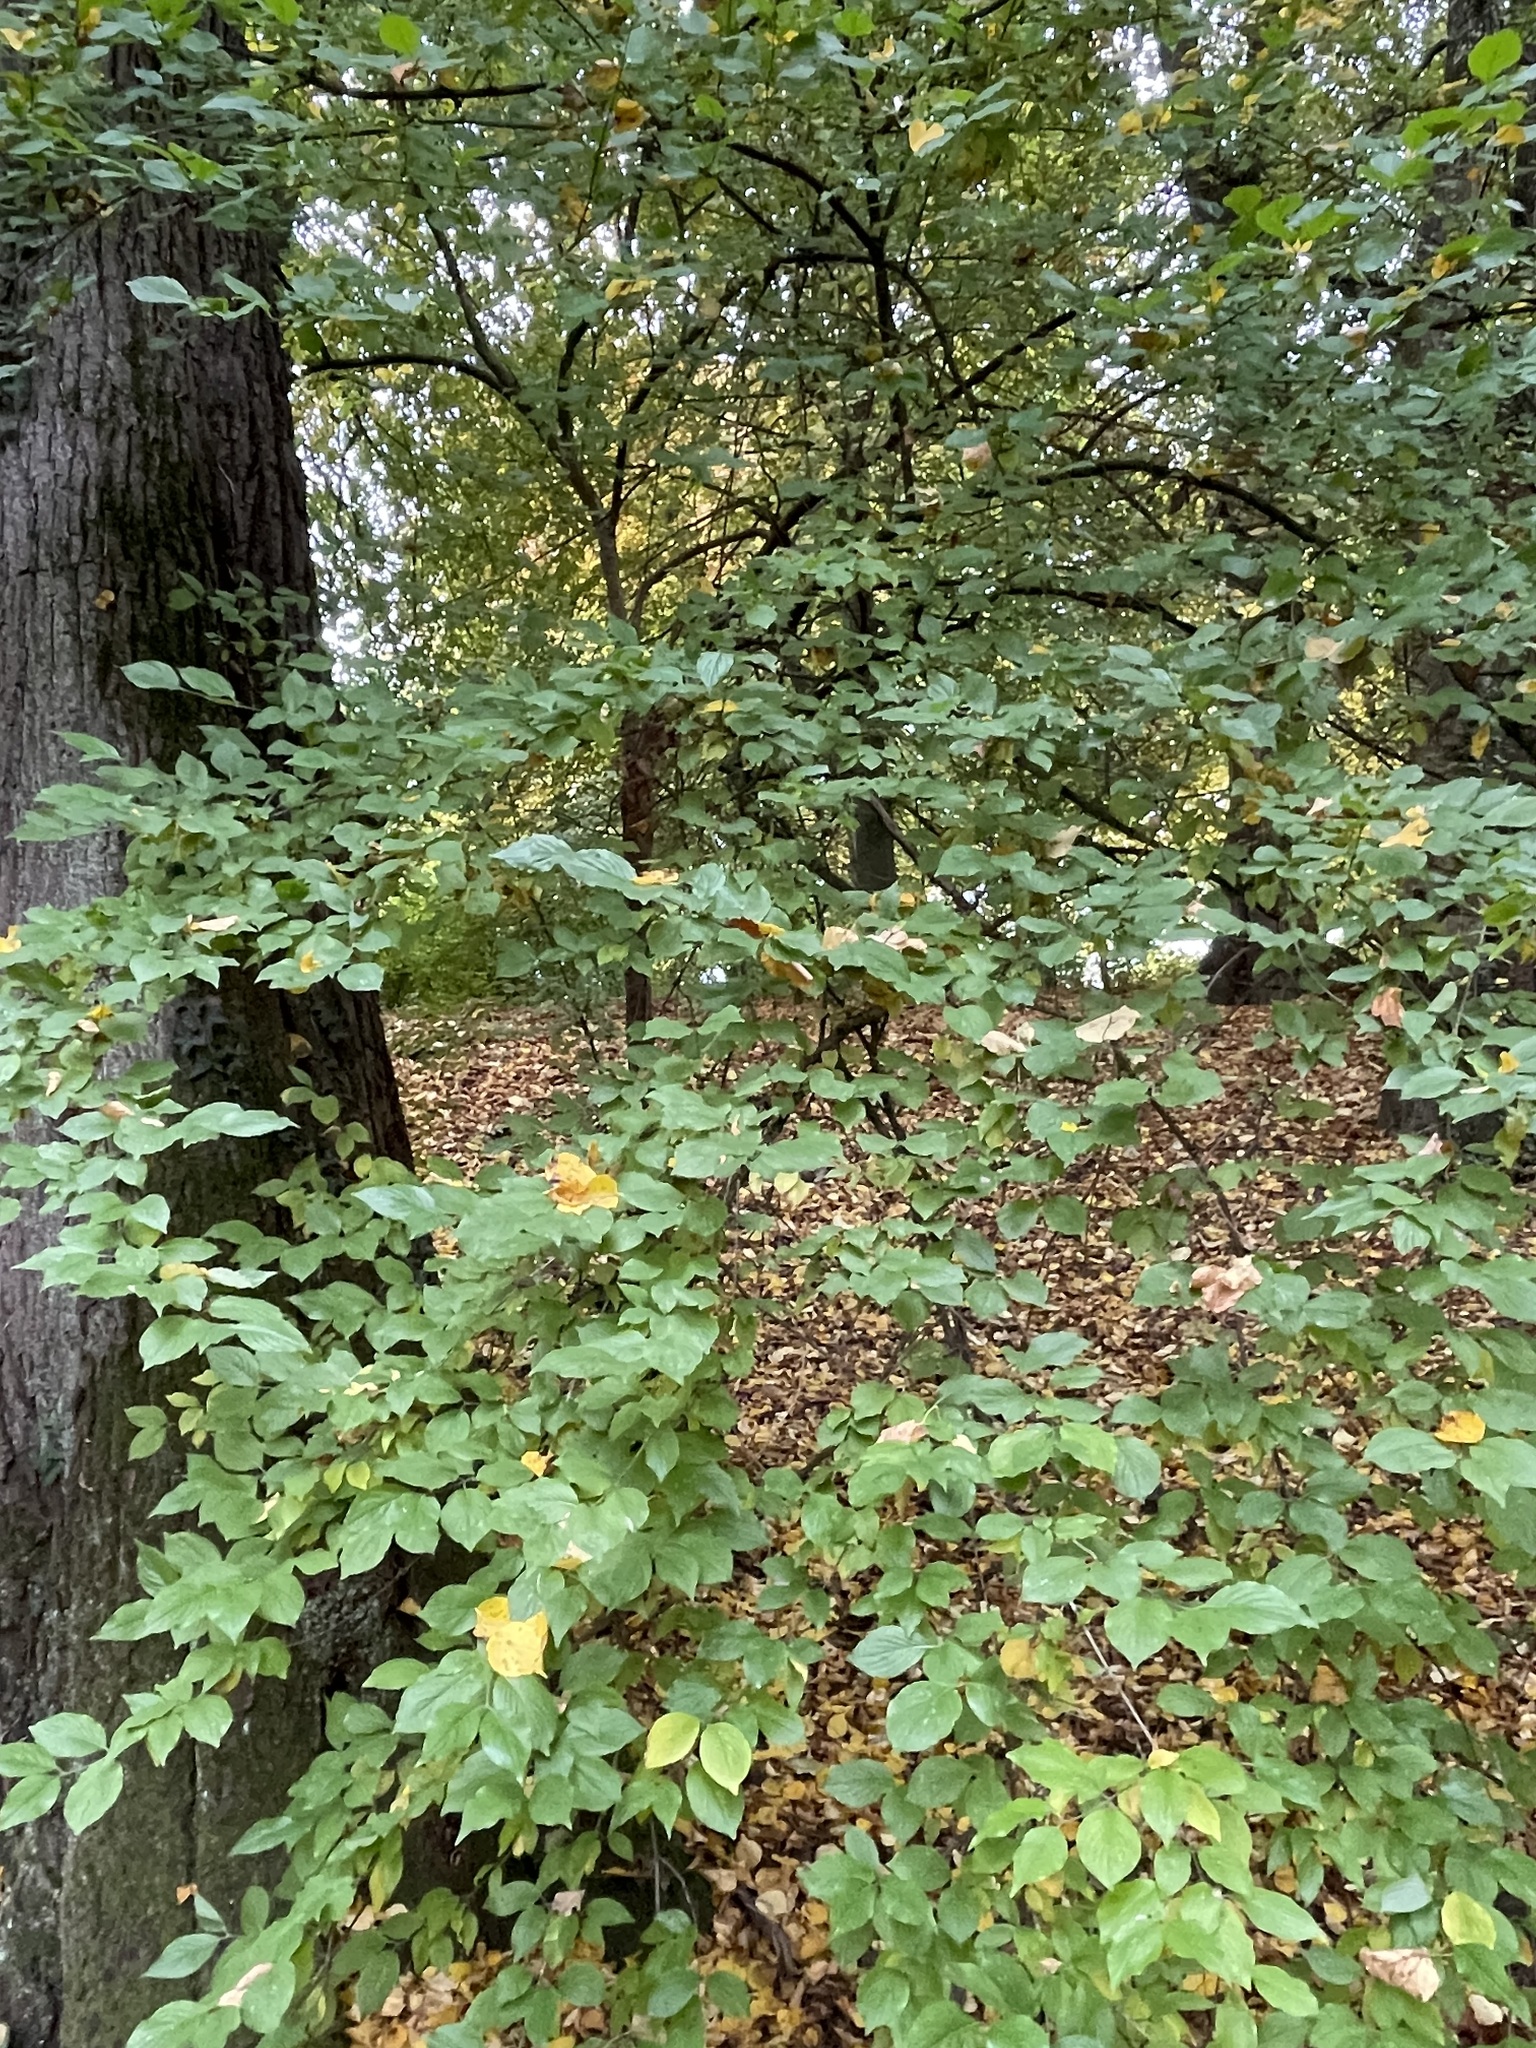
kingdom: Plantae
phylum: Tracheophyta
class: Magnoliopsida
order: Cornales
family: Cornaceae
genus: Cornus
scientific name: Cornus mas
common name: Cornelian-cherry
